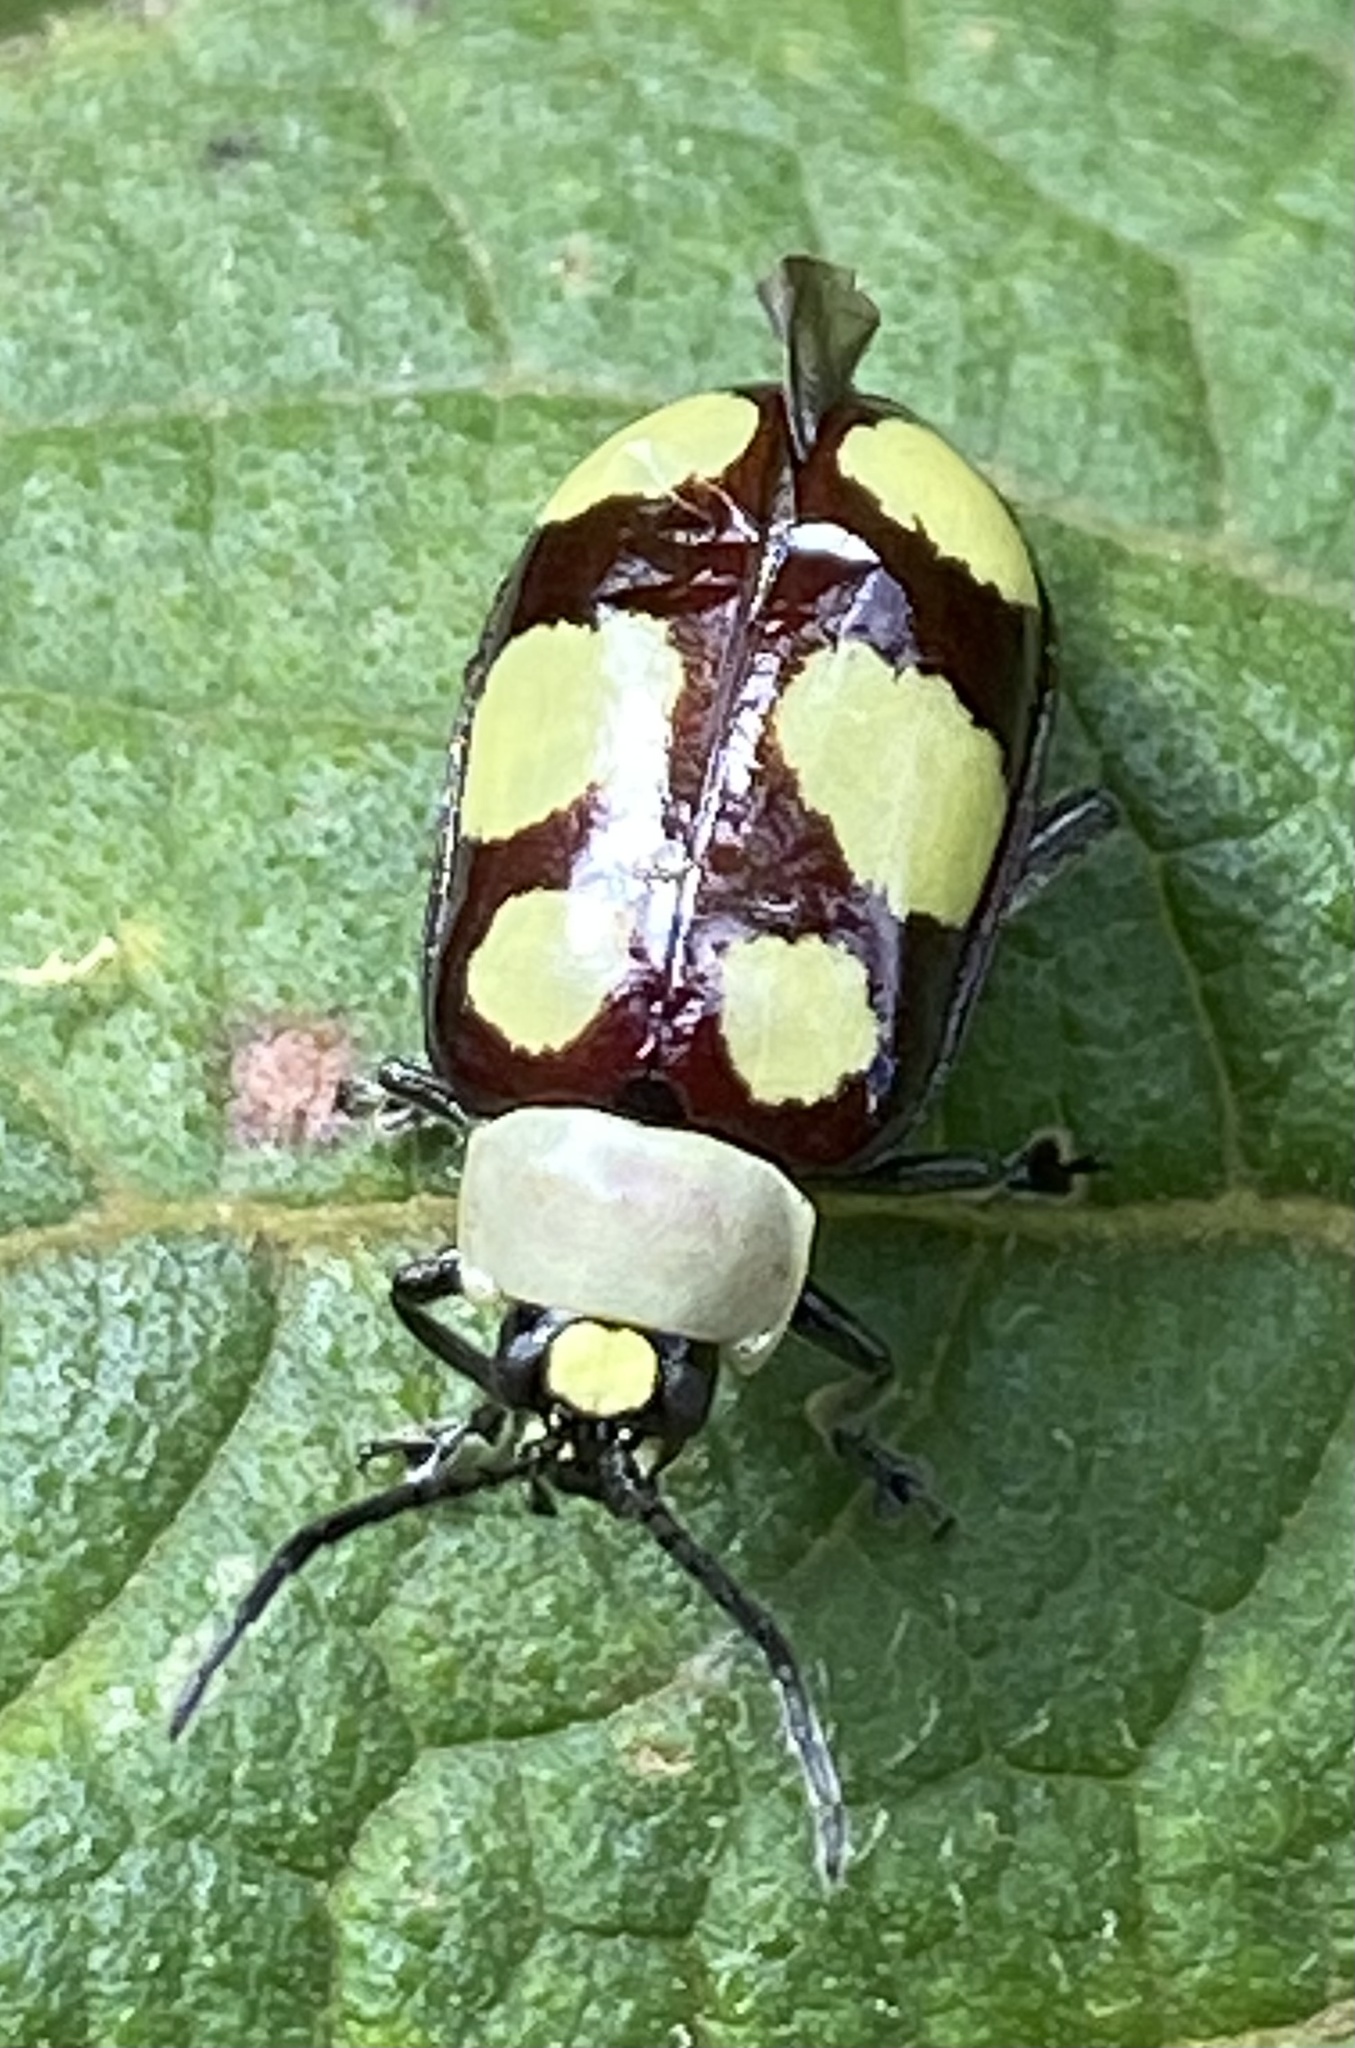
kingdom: Animalia
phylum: Arthropoda
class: Insecta
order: Coleoptera
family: Chrysomelidae
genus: Omophoita
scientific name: Omophoita
